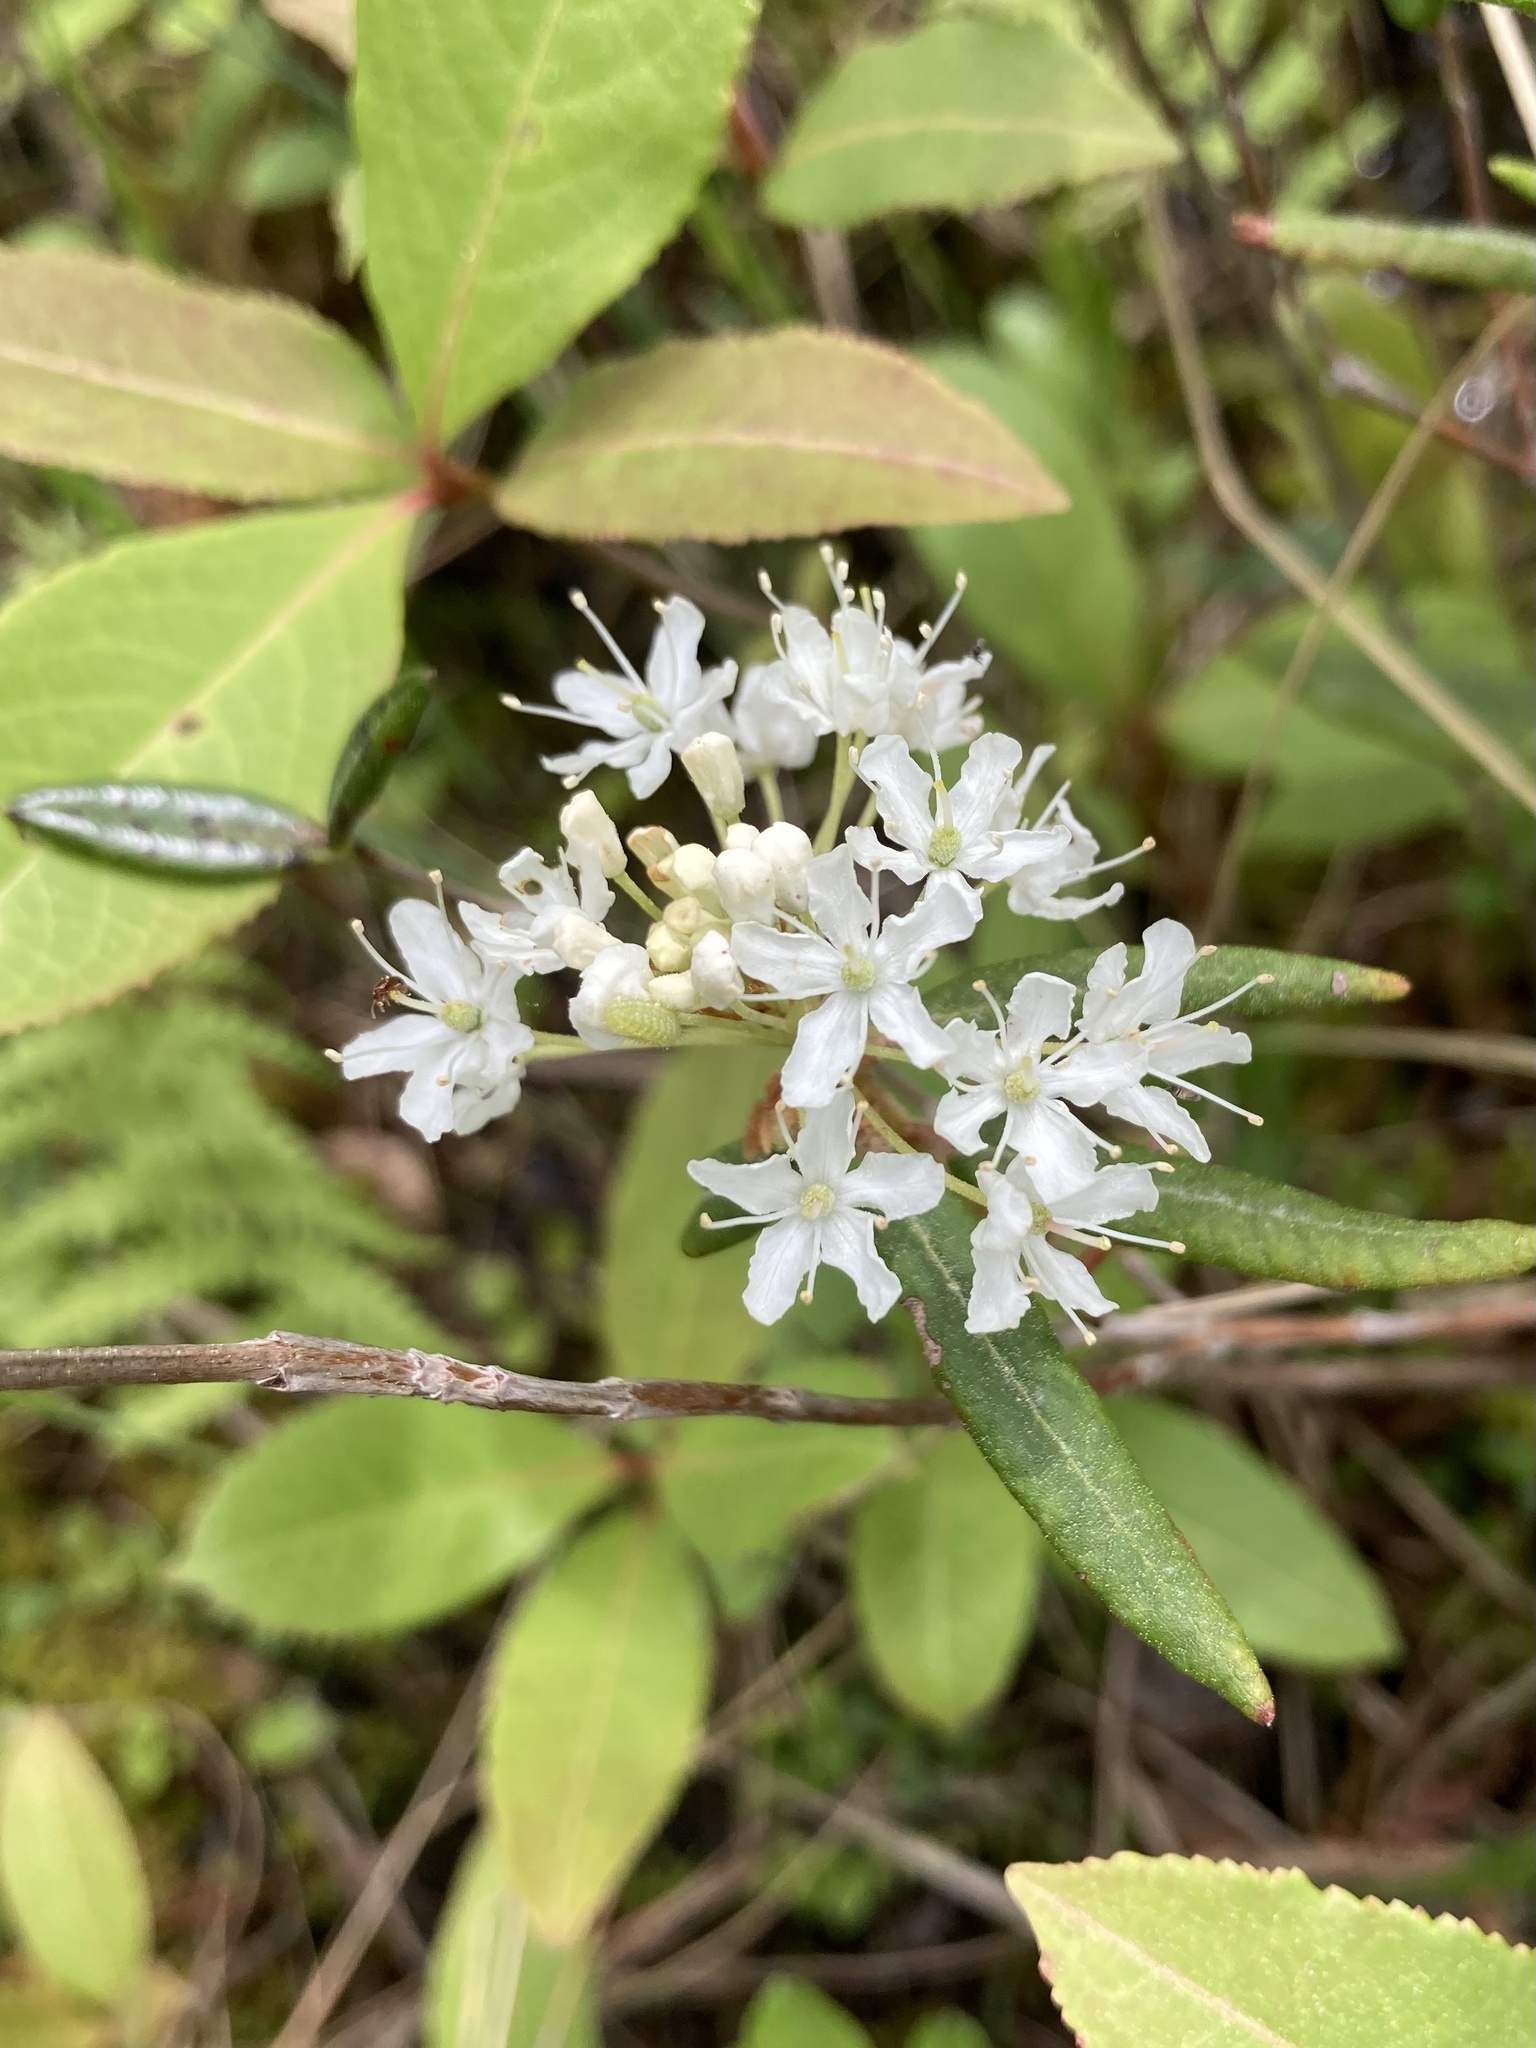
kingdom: Plantae
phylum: Tracheophyta
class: Magnoliopsida
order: Ericales
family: Ericaceae
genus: Rhododendron
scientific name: Rhododendron groenlandicum
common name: Bog labrador tea
